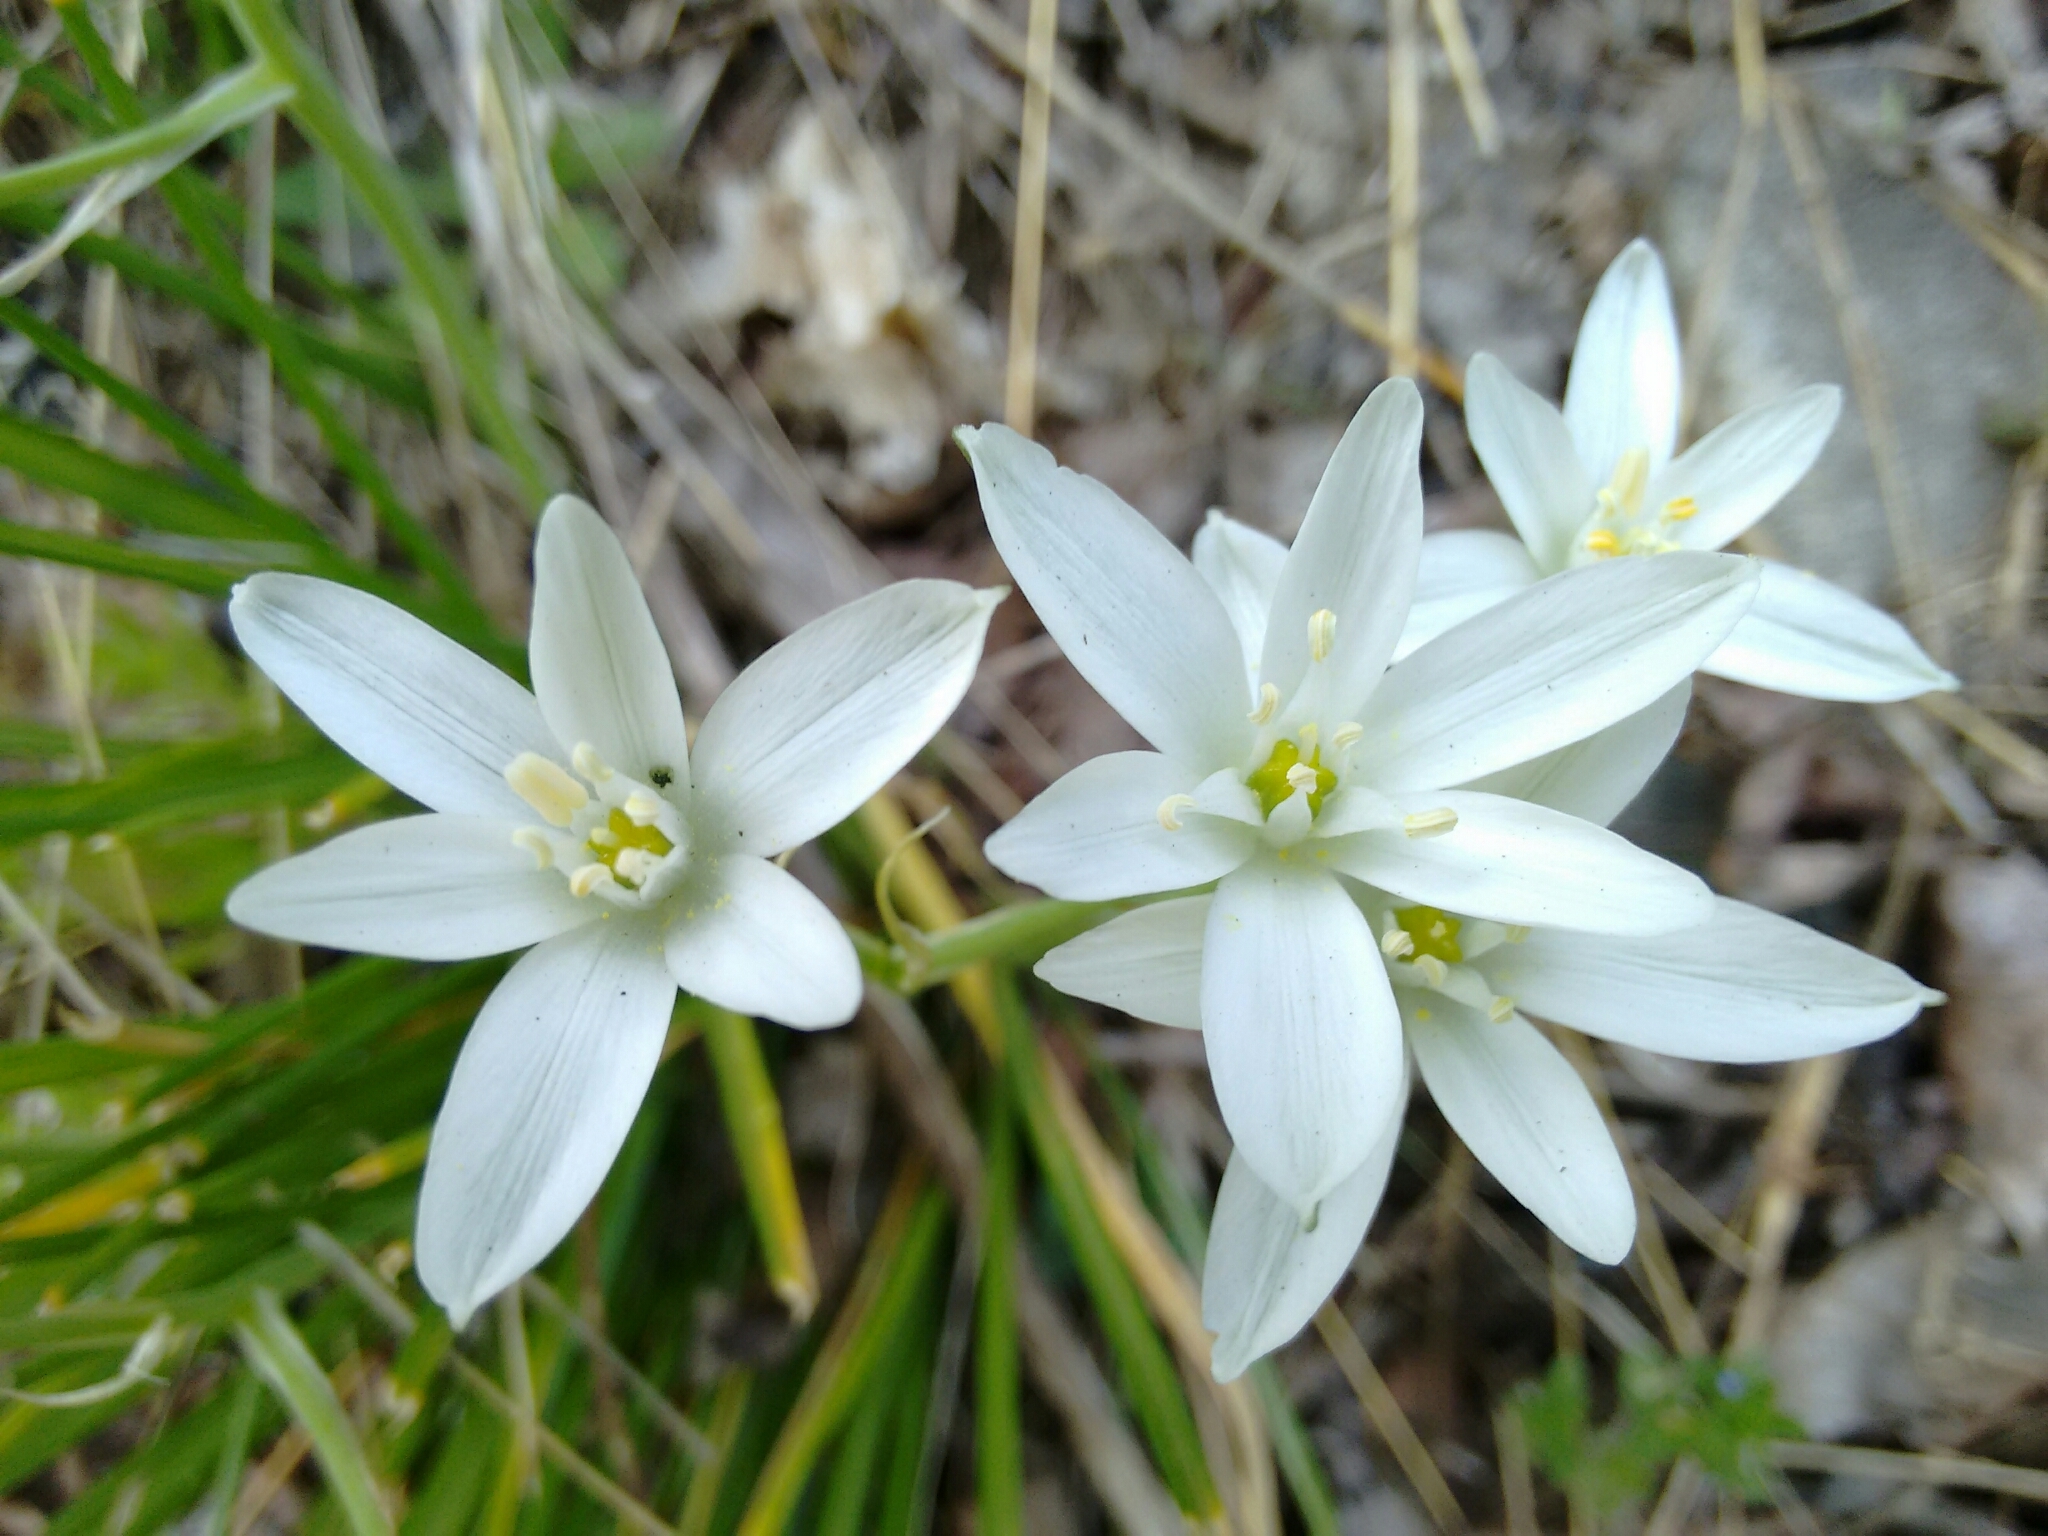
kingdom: Plantae
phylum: Tracheophyta
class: Liliopsida
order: Asparagales
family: Asparagaceae
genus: Ornithogalum
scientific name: Ornithogalum umbellatum
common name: Garden star-of-bethlehem
